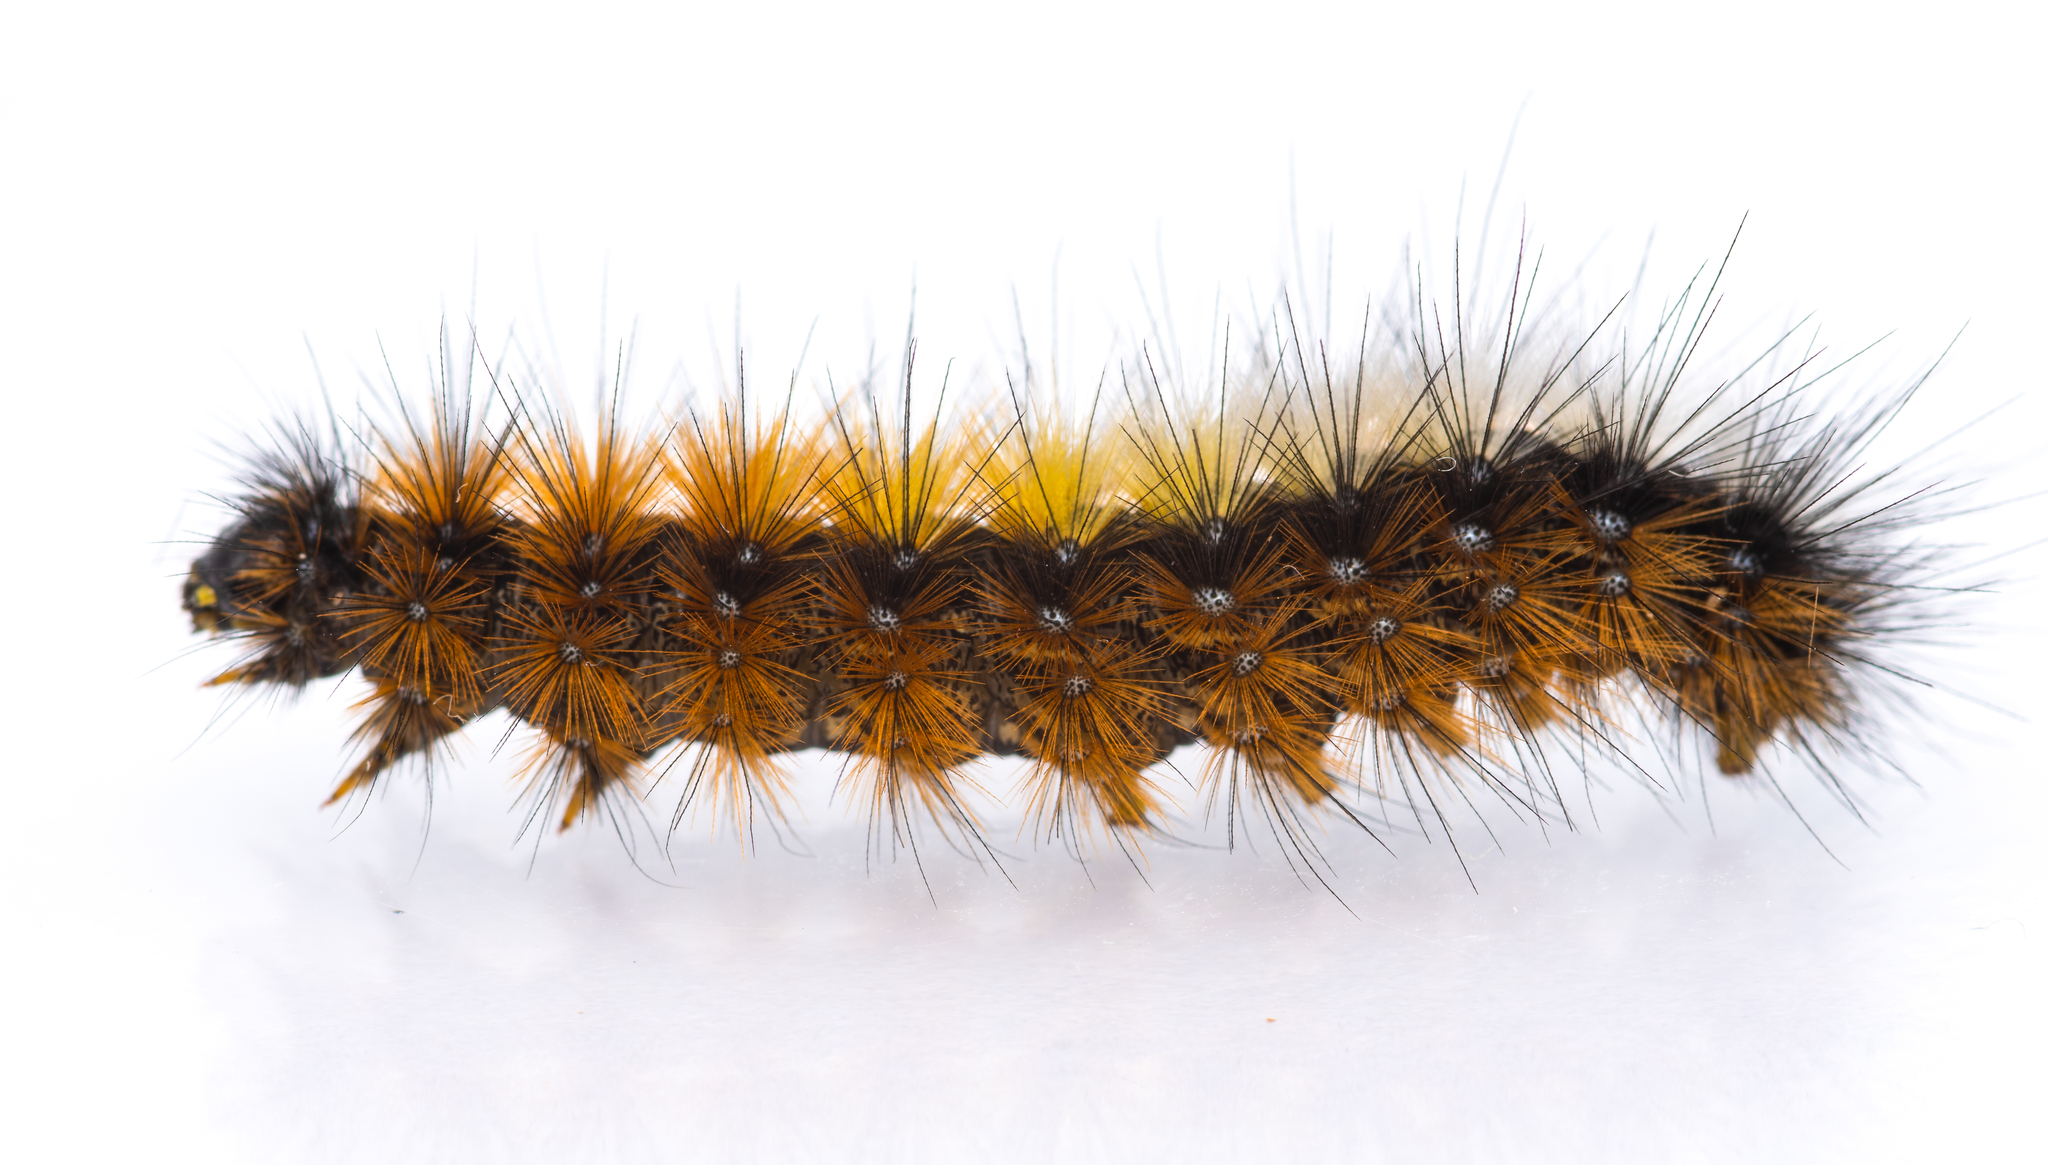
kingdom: Animalia
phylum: Arthropoda
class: Insecta
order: Lepidoptera
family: Erebidae
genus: Ocnogyna
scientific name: Ocnogyna boeticum
